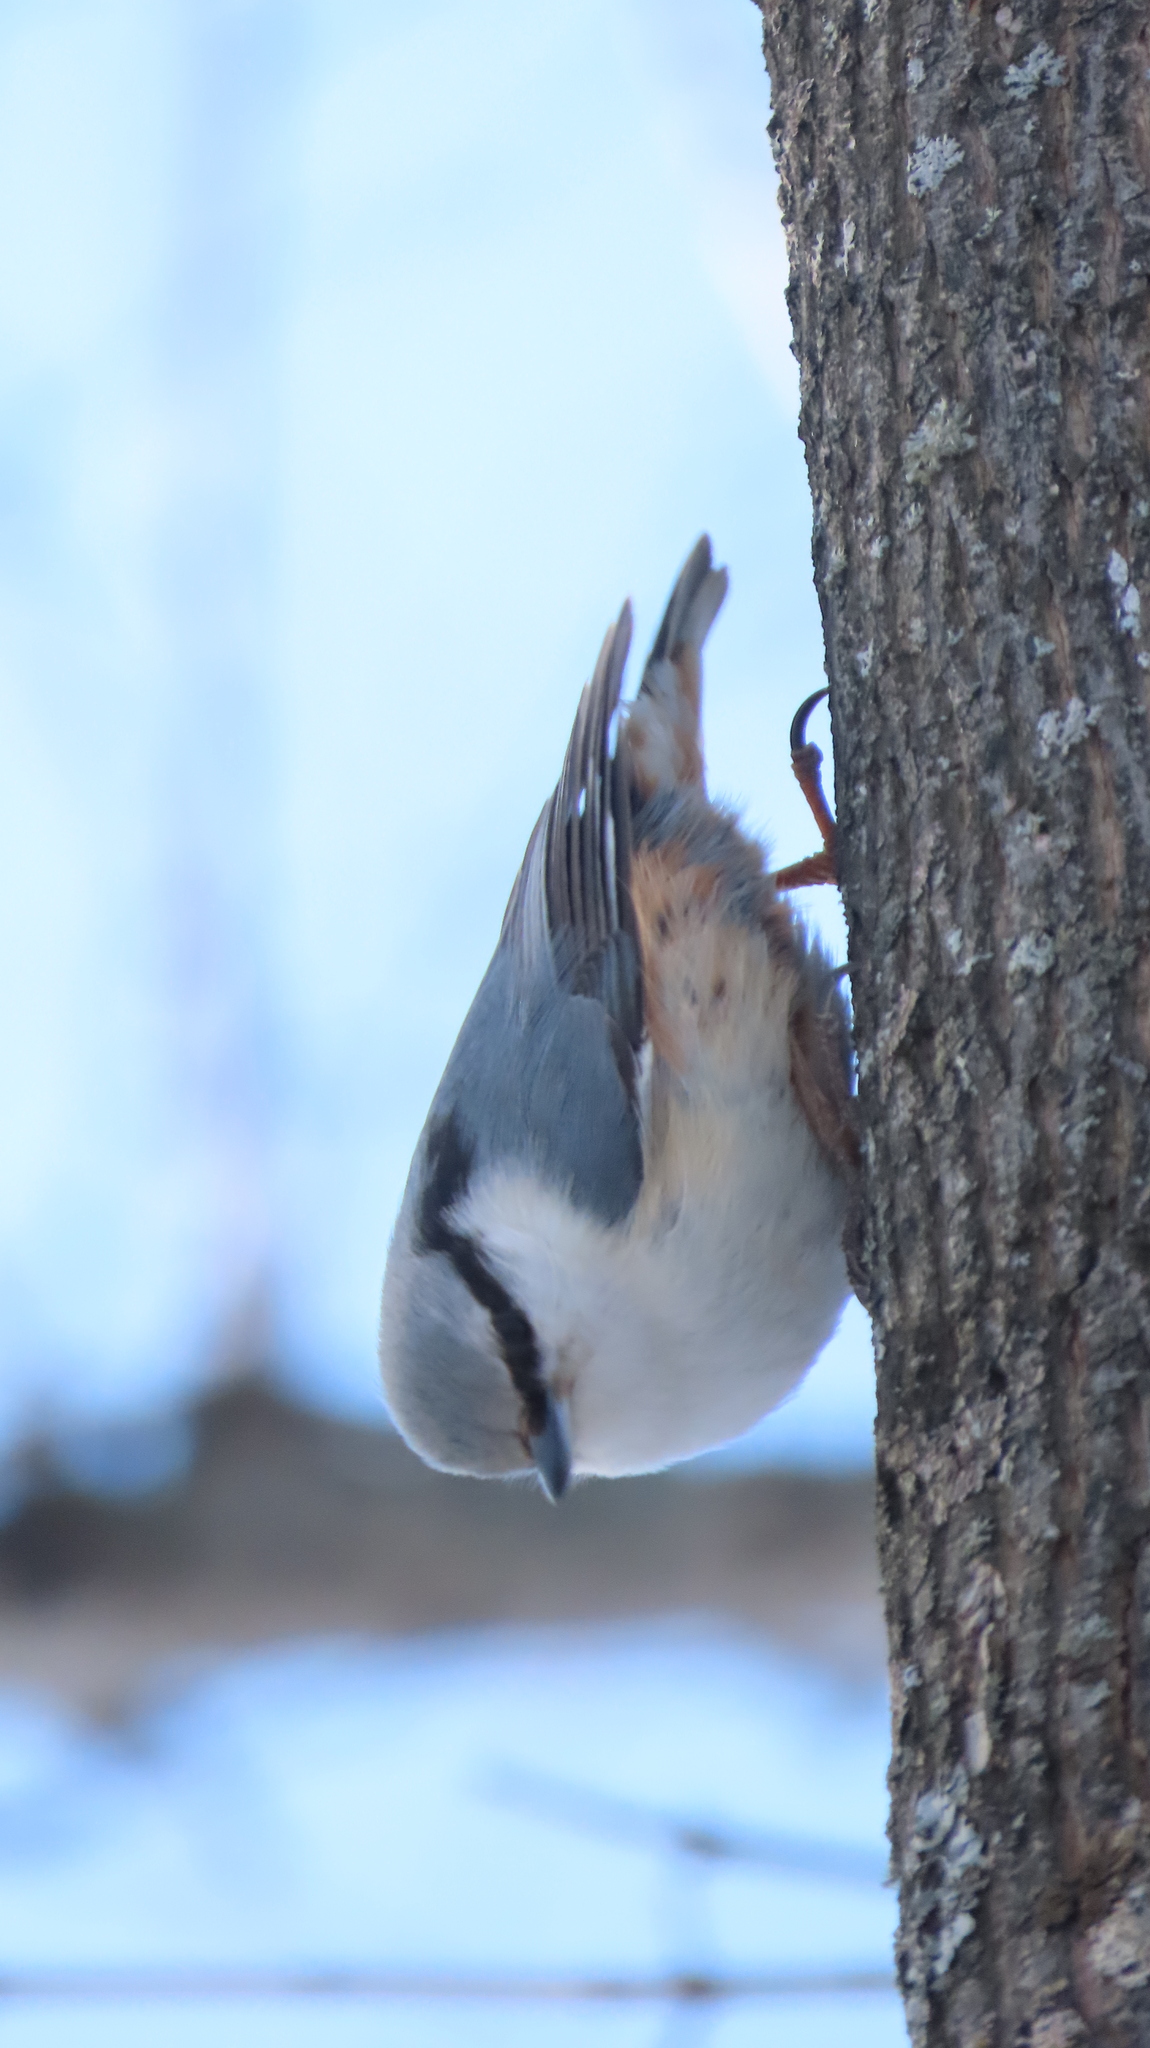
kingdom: Animalia
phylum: Chordata
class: Aves
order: Passeriformes
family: Sittidae
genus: Sitta
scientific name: Sitta europaea
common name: Eurasian nuthatch
